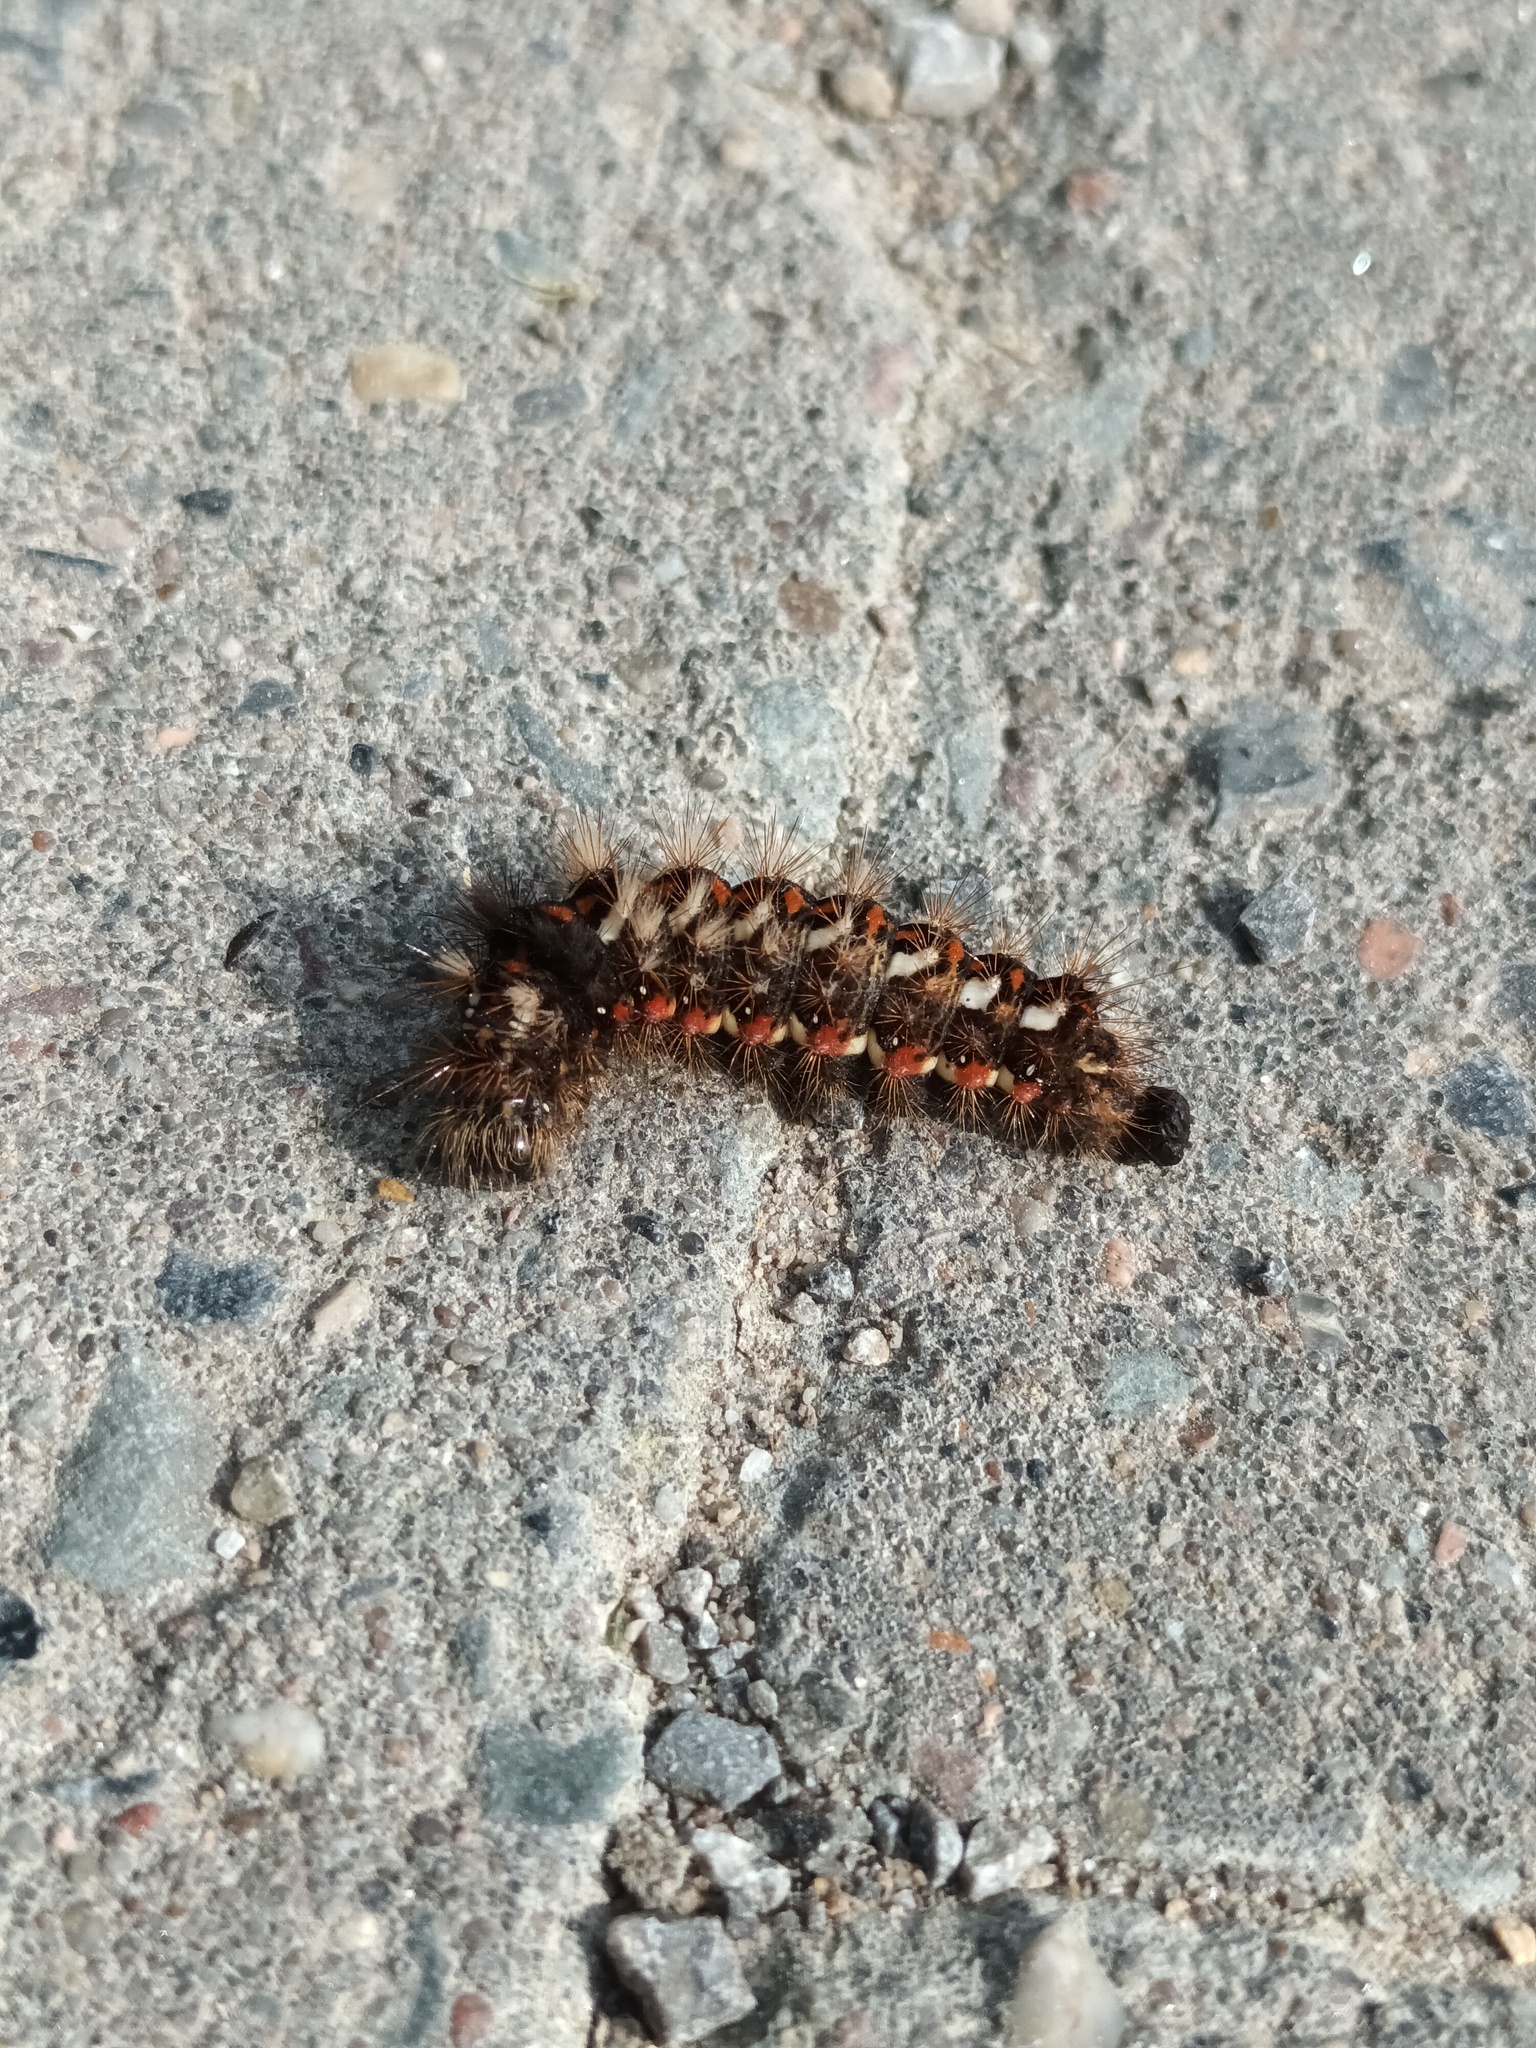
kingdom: Animalia
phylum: Arthropoda
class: Insecta
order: Lepidoptera
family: Noctuidae
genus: Acronicta
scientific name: Acronicta rumicis
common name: Knot grass
